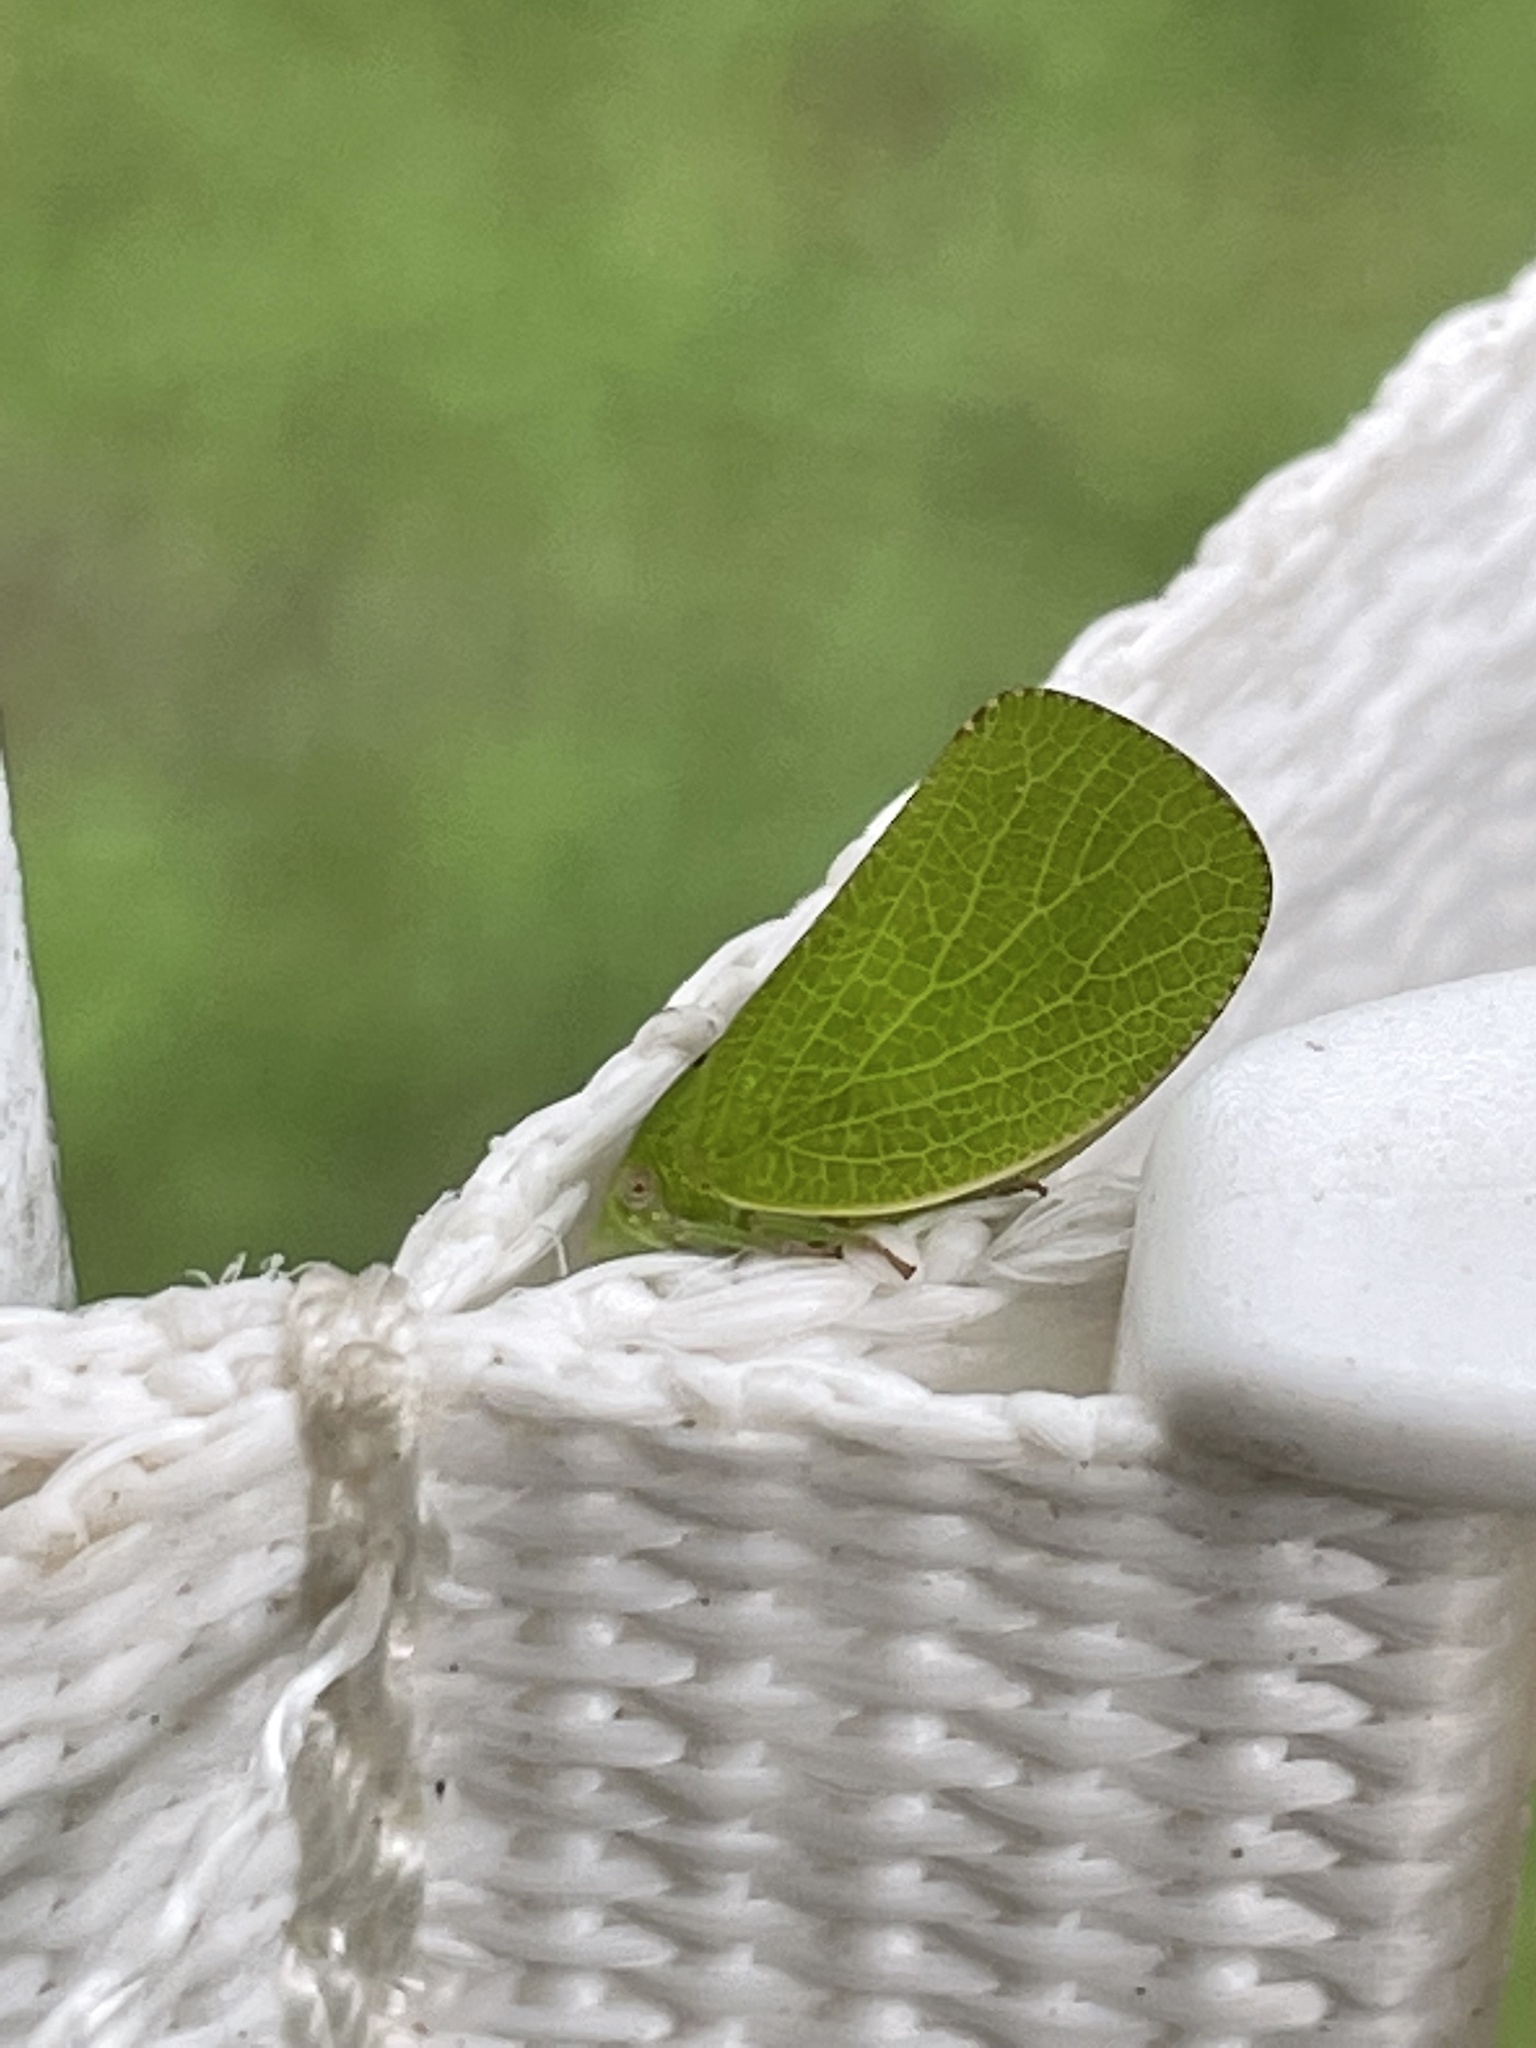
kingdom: Animalia
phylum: Arthropoda
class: Insecta
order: Hemiptera
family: Acanaloniidae
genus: Acanalonia
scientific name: Acanalonia conica
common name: Green cone-headed planthopper
